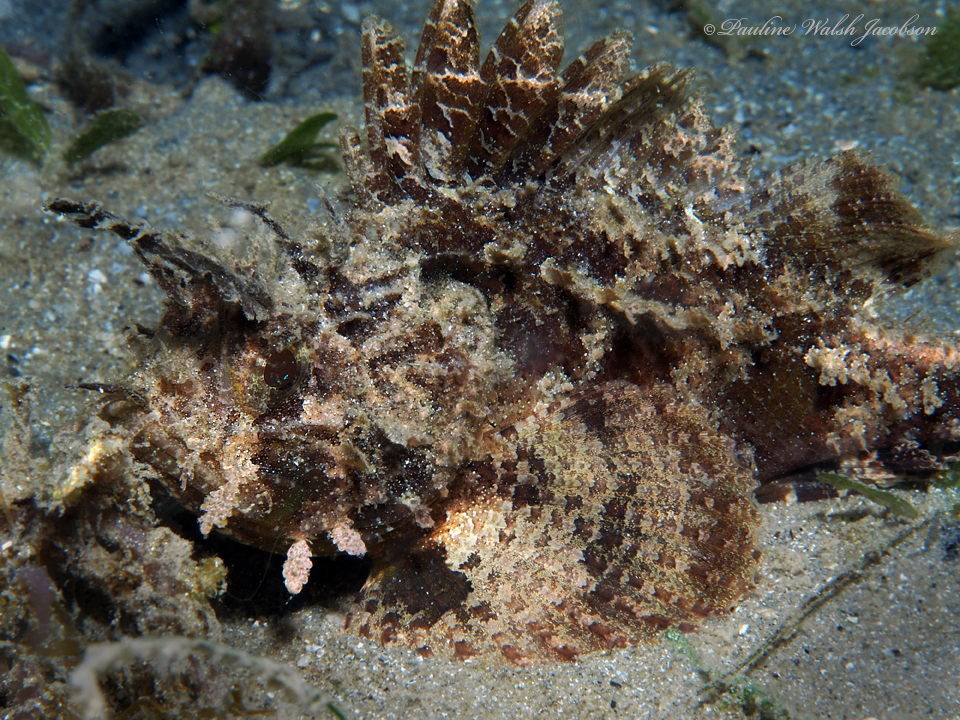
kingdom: Animalia
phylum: Chordata
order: Scorpaeniformes
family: Scorpaenidae
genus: Scorpaena
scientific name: Scorpaena grandicornis
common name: Plumed scorpionfish
